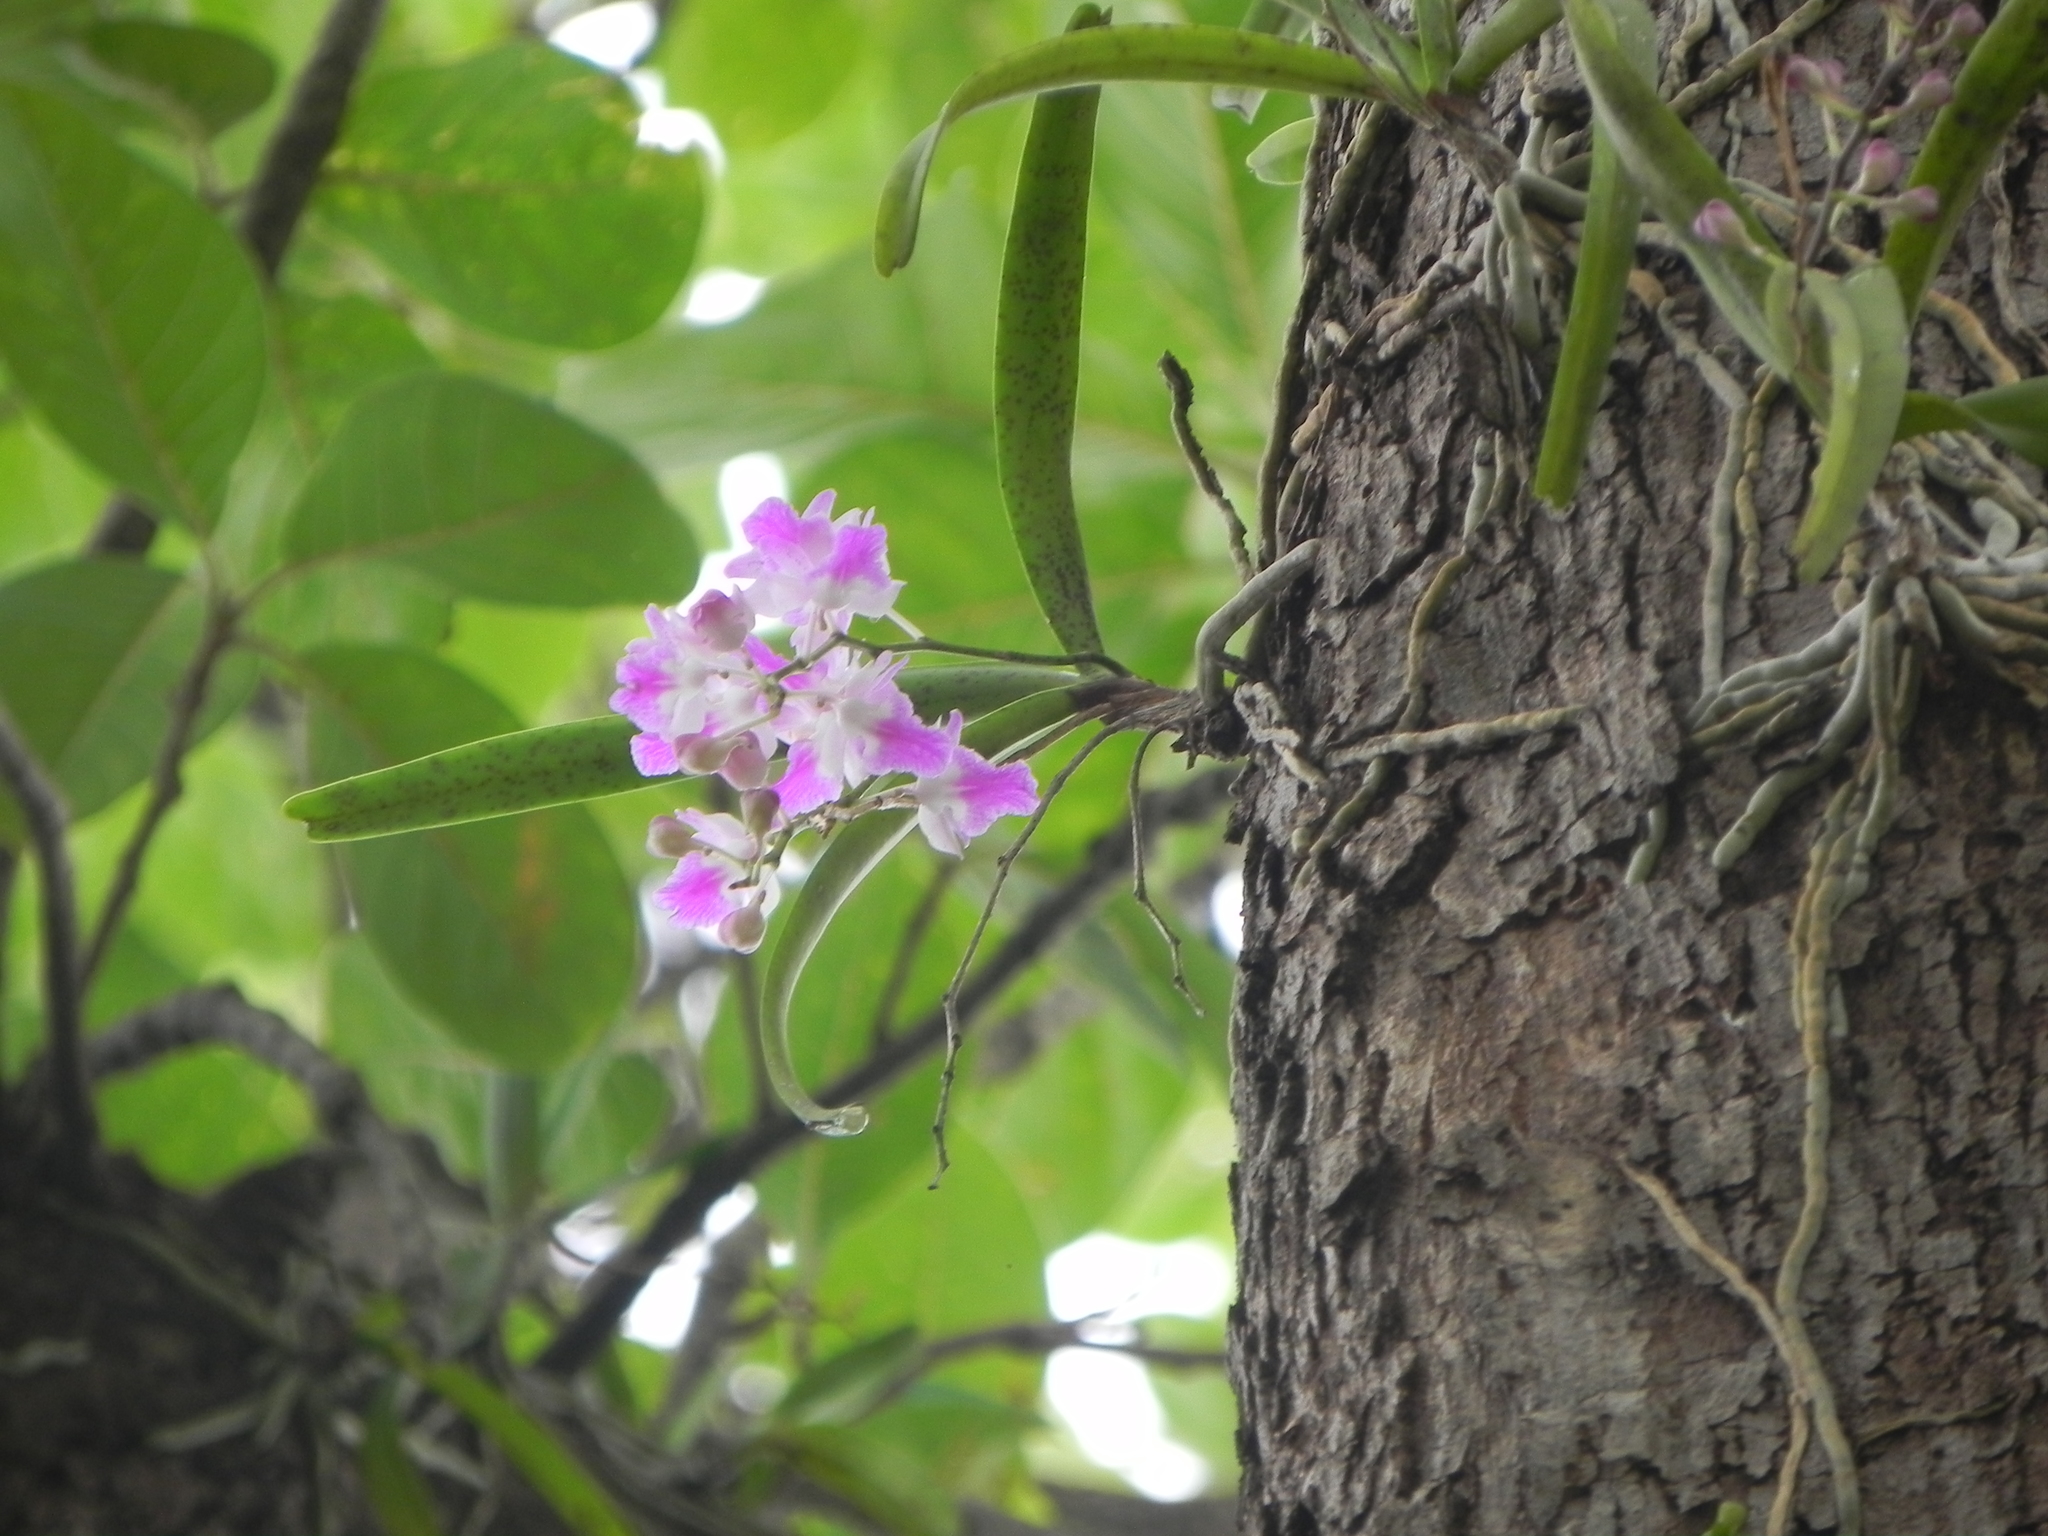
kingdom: Plantae
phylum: Tracheophyta
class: Liliopsida
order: Asparagales
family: Orchidaceae
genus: Aerides
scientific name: Aerides maculosa
